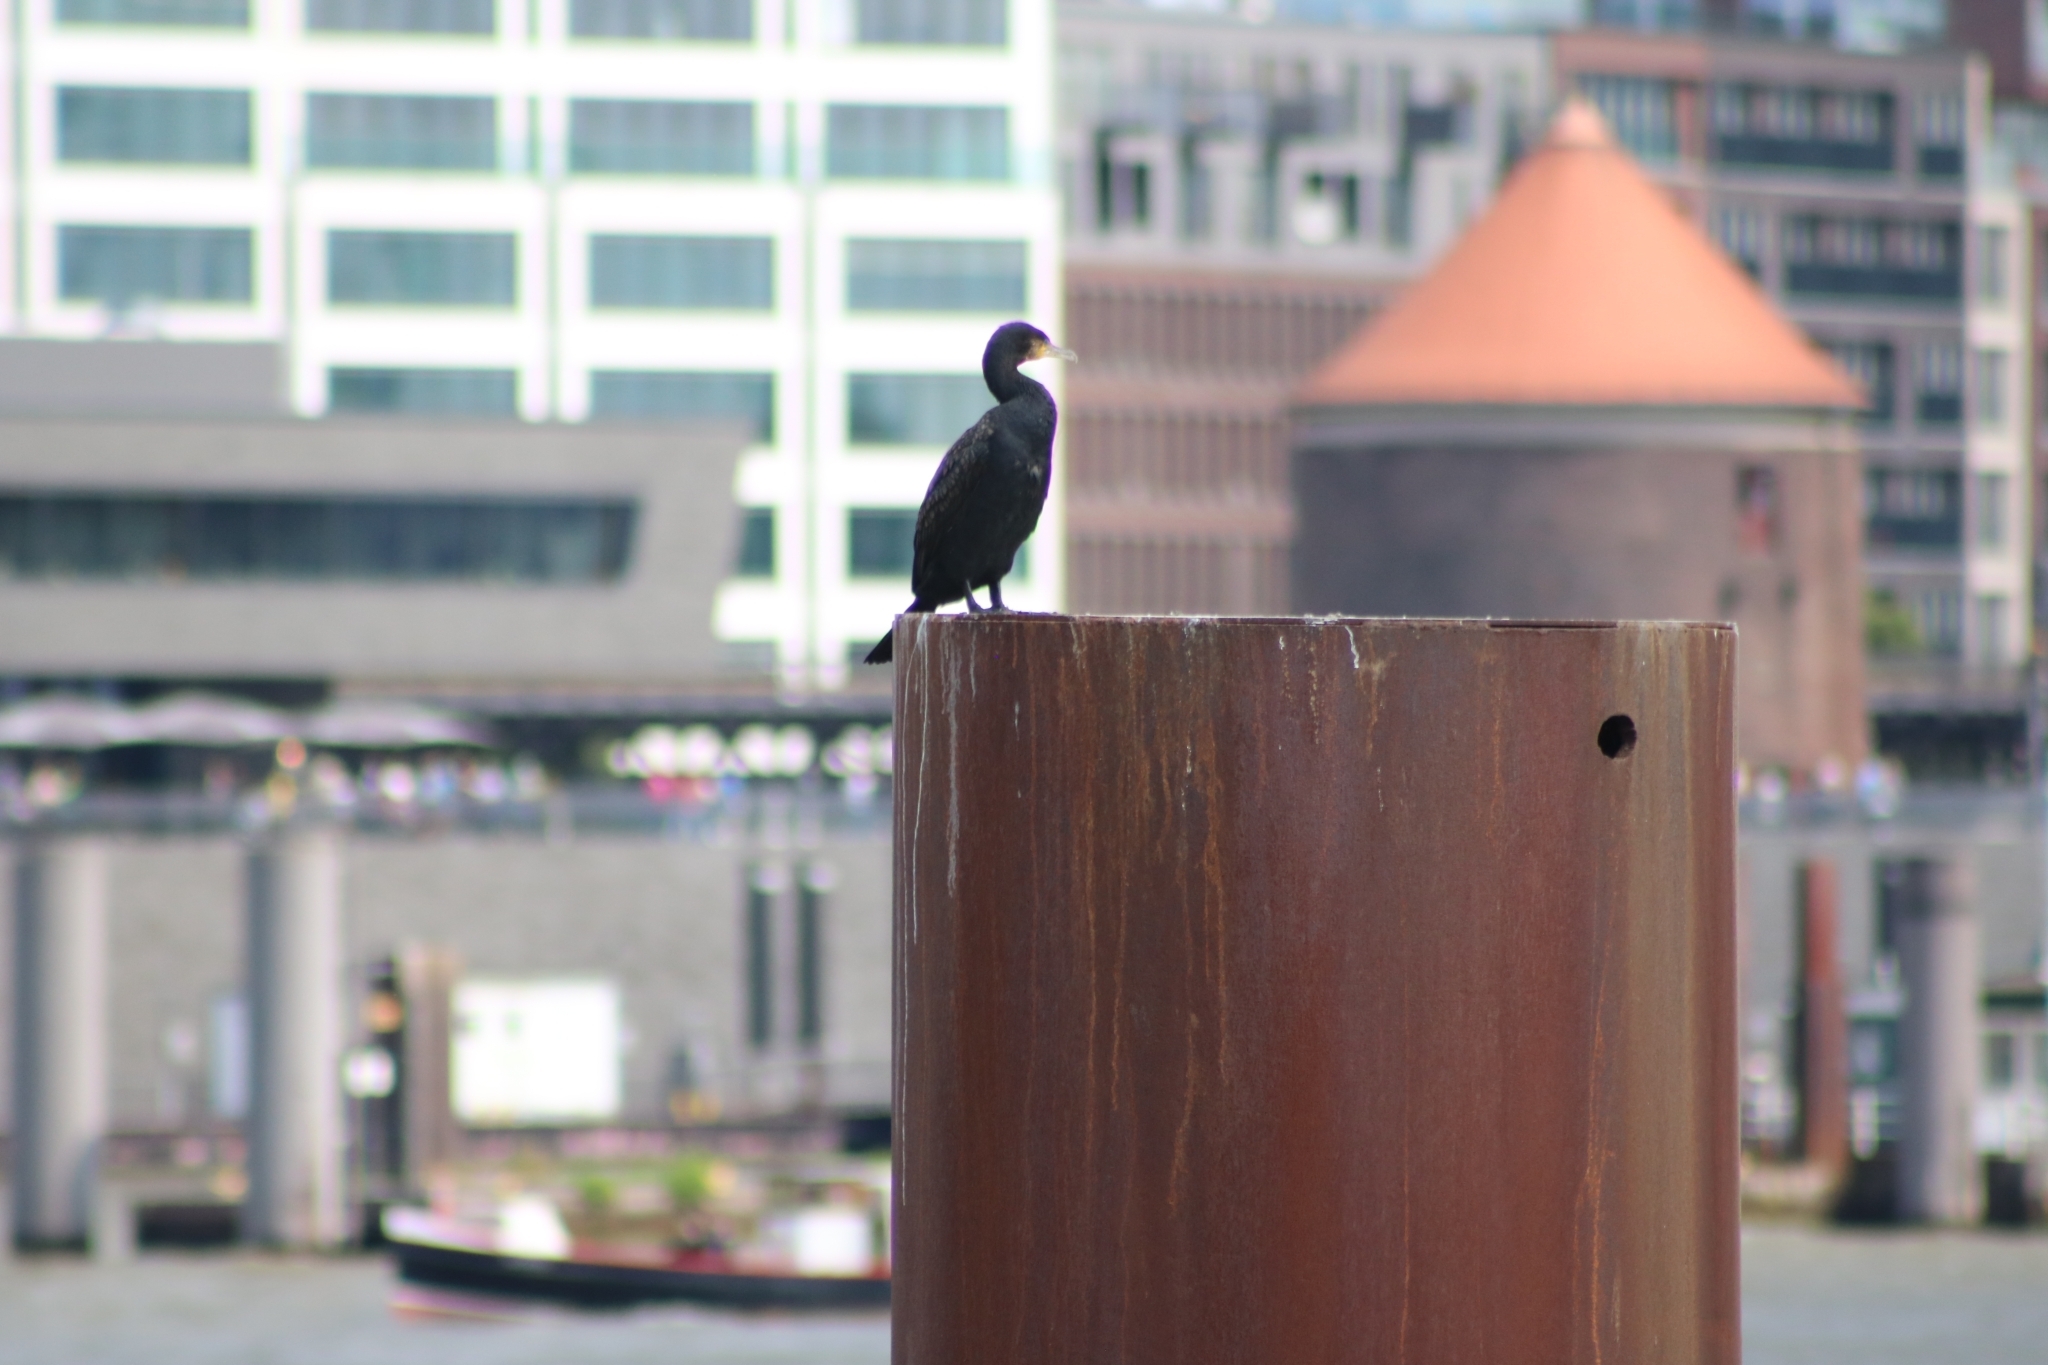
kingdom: Animalia
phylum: Chordata
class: Aves
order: Suliformes
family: Phalacrocoracidae
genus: Phalacrocorax
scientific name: Phalacrocorax carbo
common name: Great cormorant
